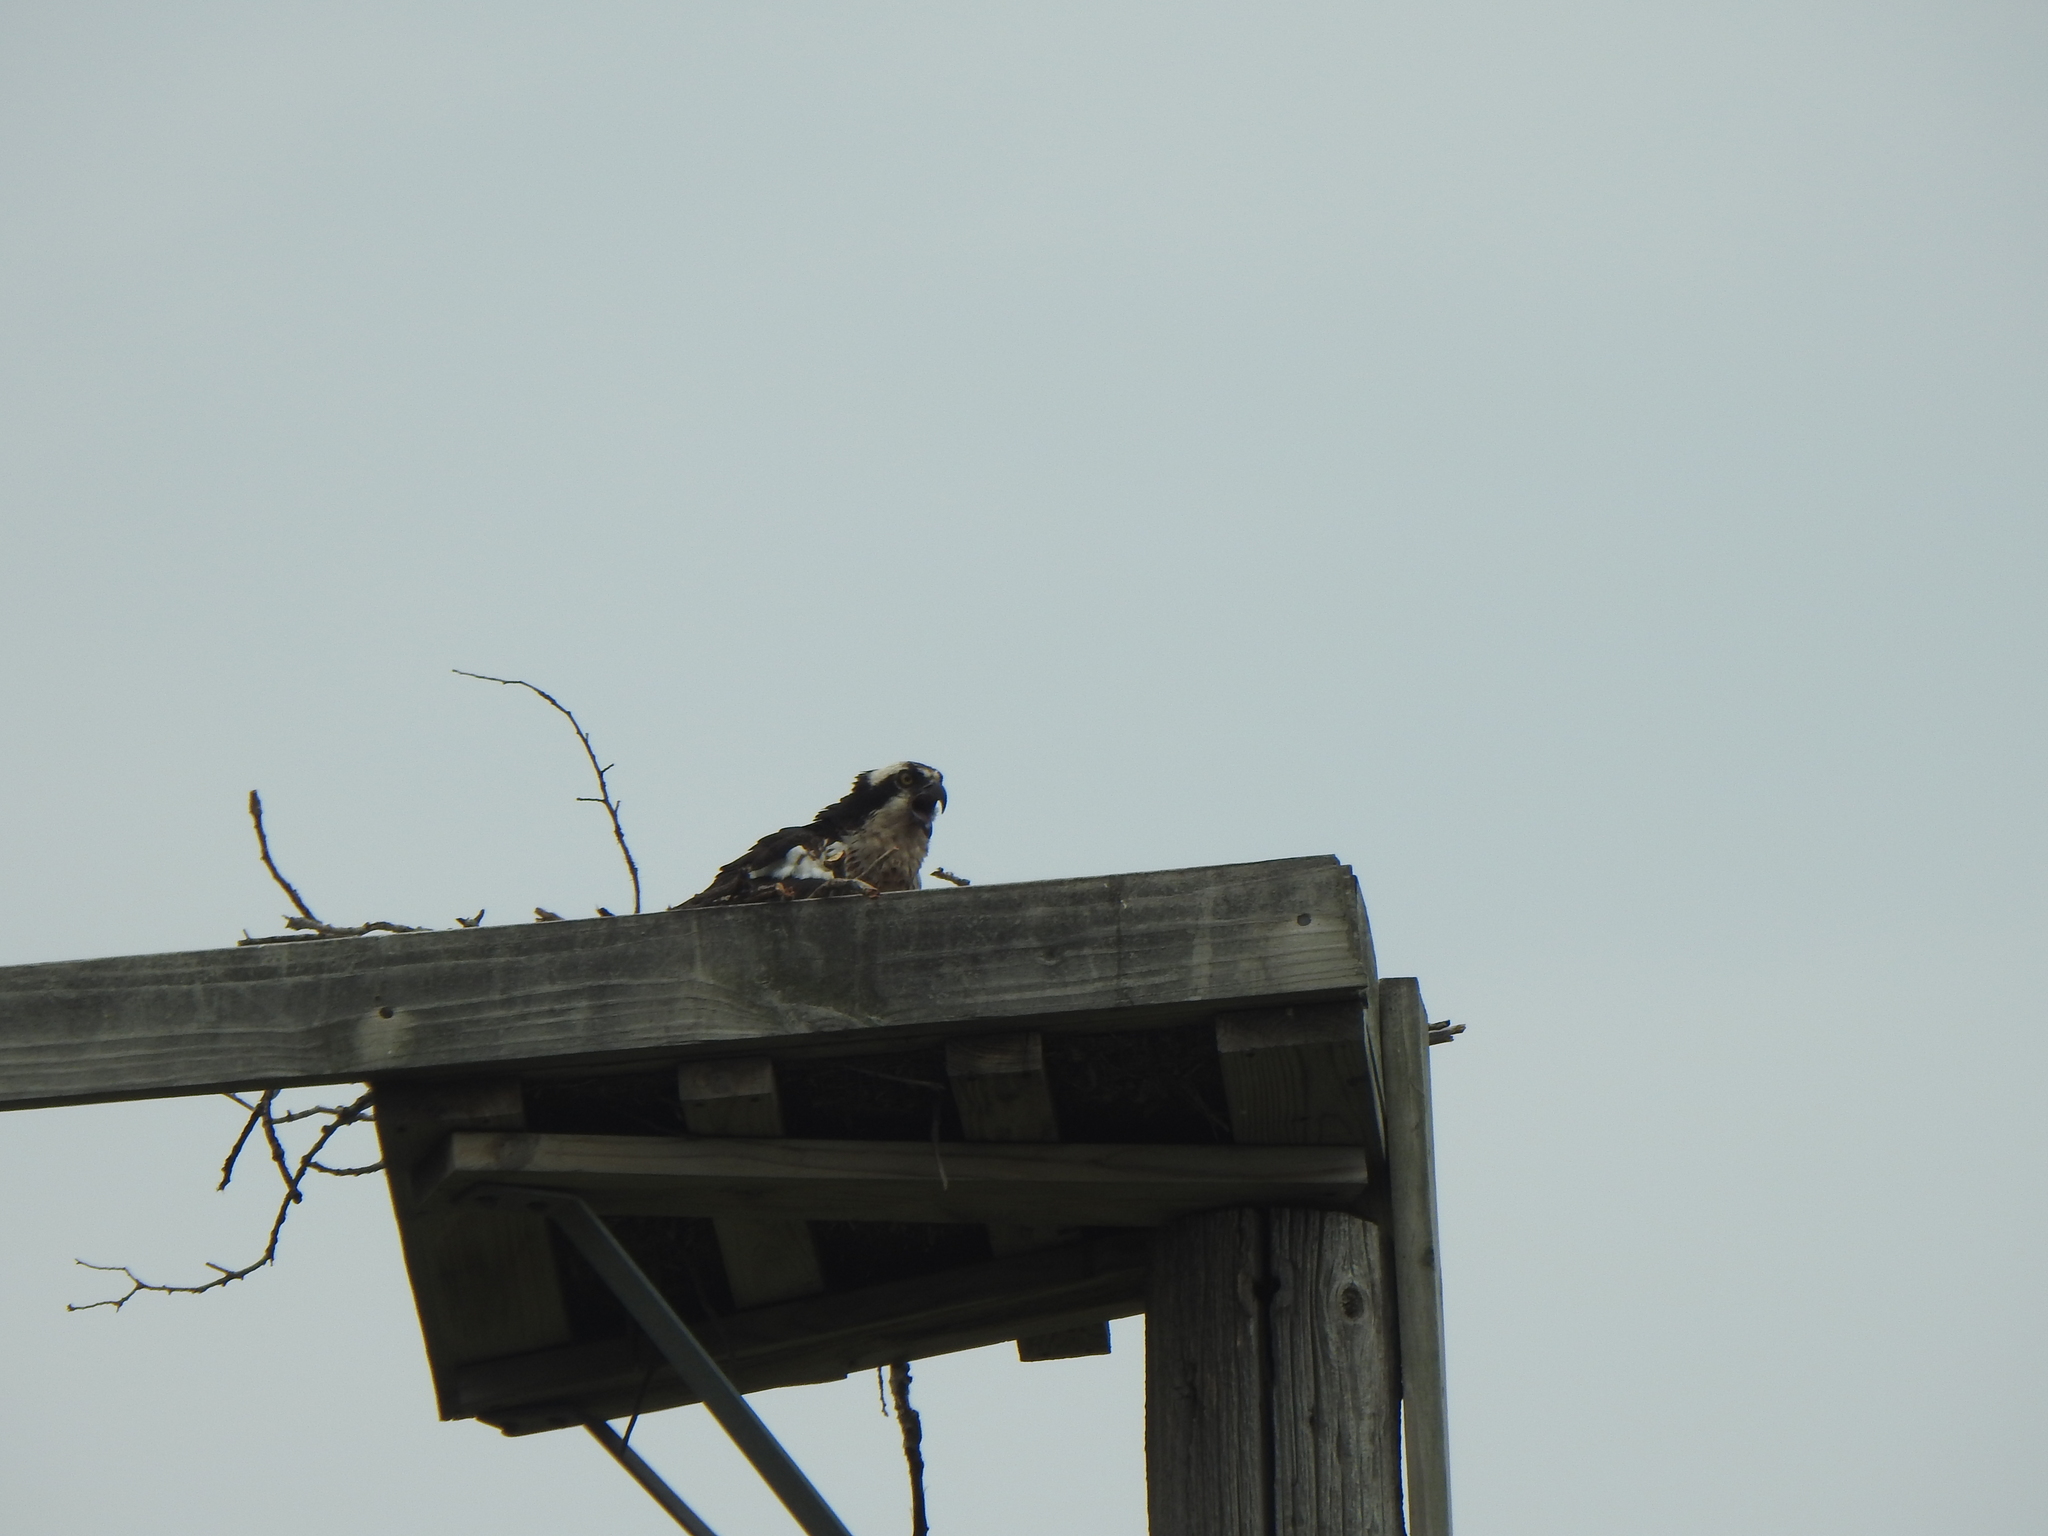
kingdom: Animalia
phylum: Chordata
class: Aves
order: Accipitriformes
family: Pandionidae
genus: Pandion
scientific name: Pandion haliaetus
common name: Osprey
